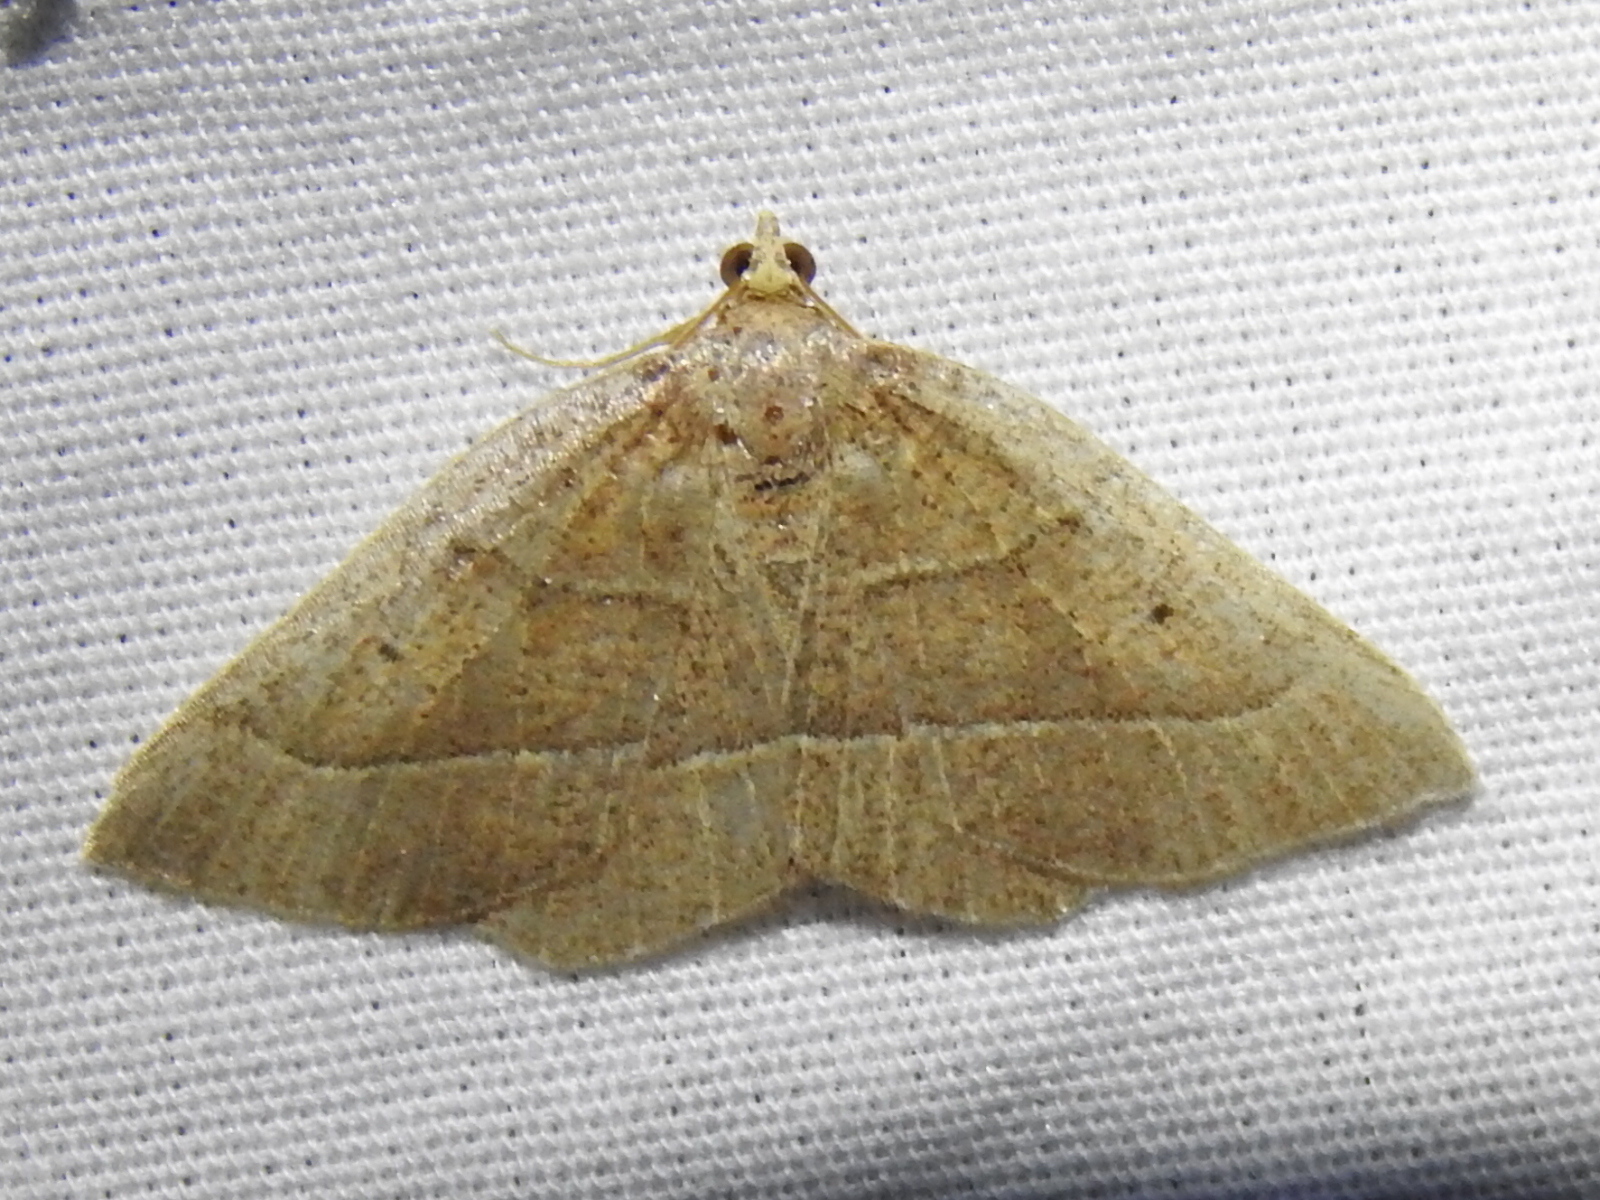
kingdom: Animalia
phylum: Arthropoda
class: Insecta
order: Lepidoptera
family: Geometridae
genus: Episemasia
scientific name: Episemasia cervinaria
